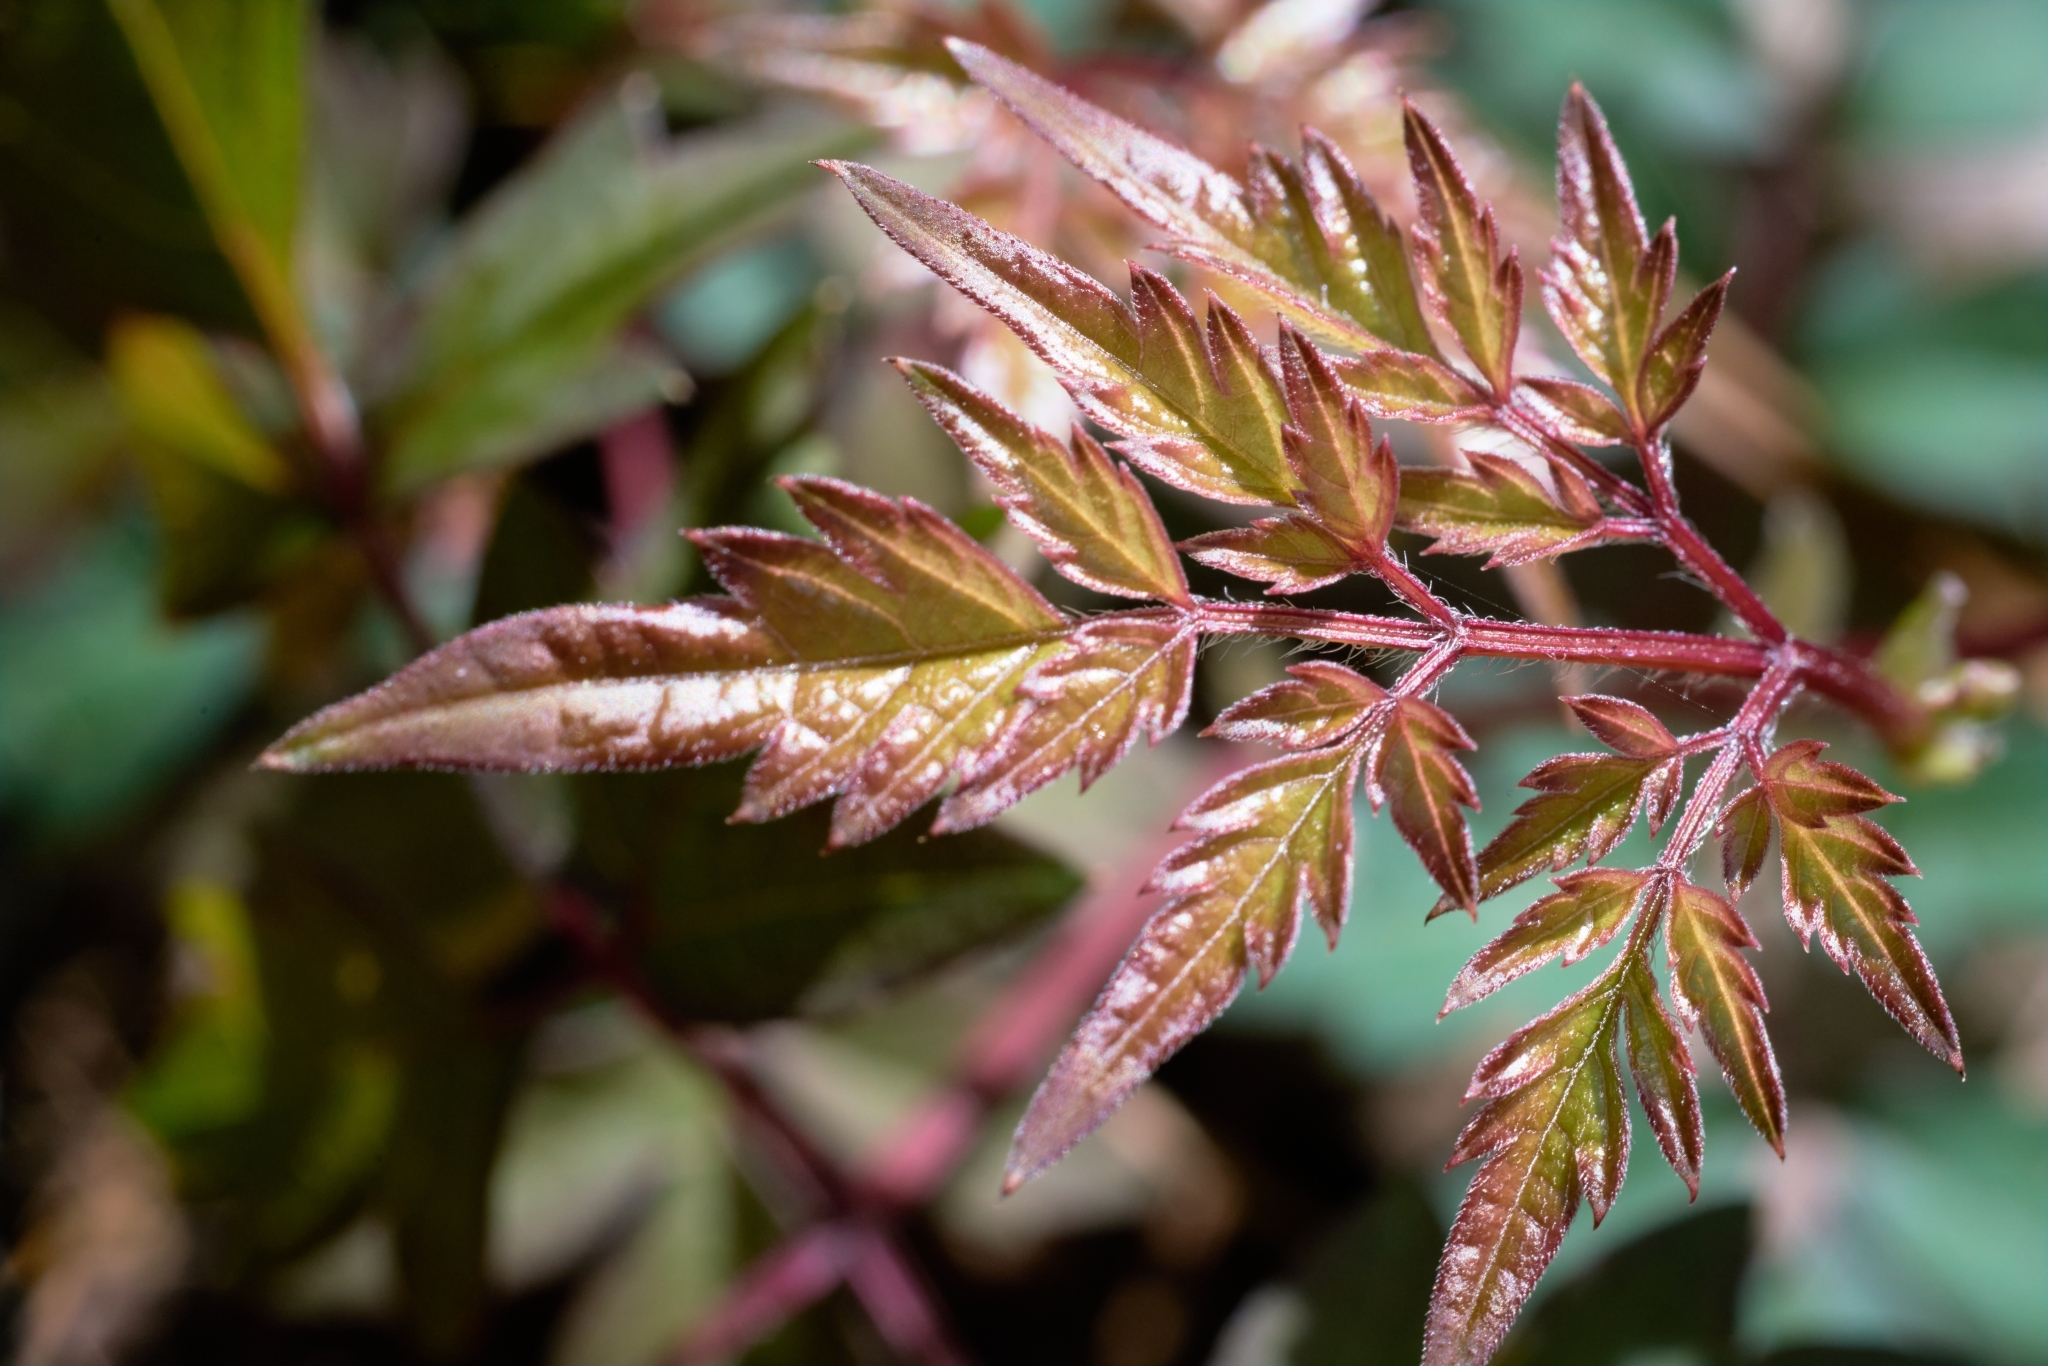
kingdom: Plantae
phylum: Tracheophyta
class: Magnoliopsida
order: Vitales
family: Vitaceae
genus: Nekemias
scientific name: Nekemias arborea
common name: Peppervine
